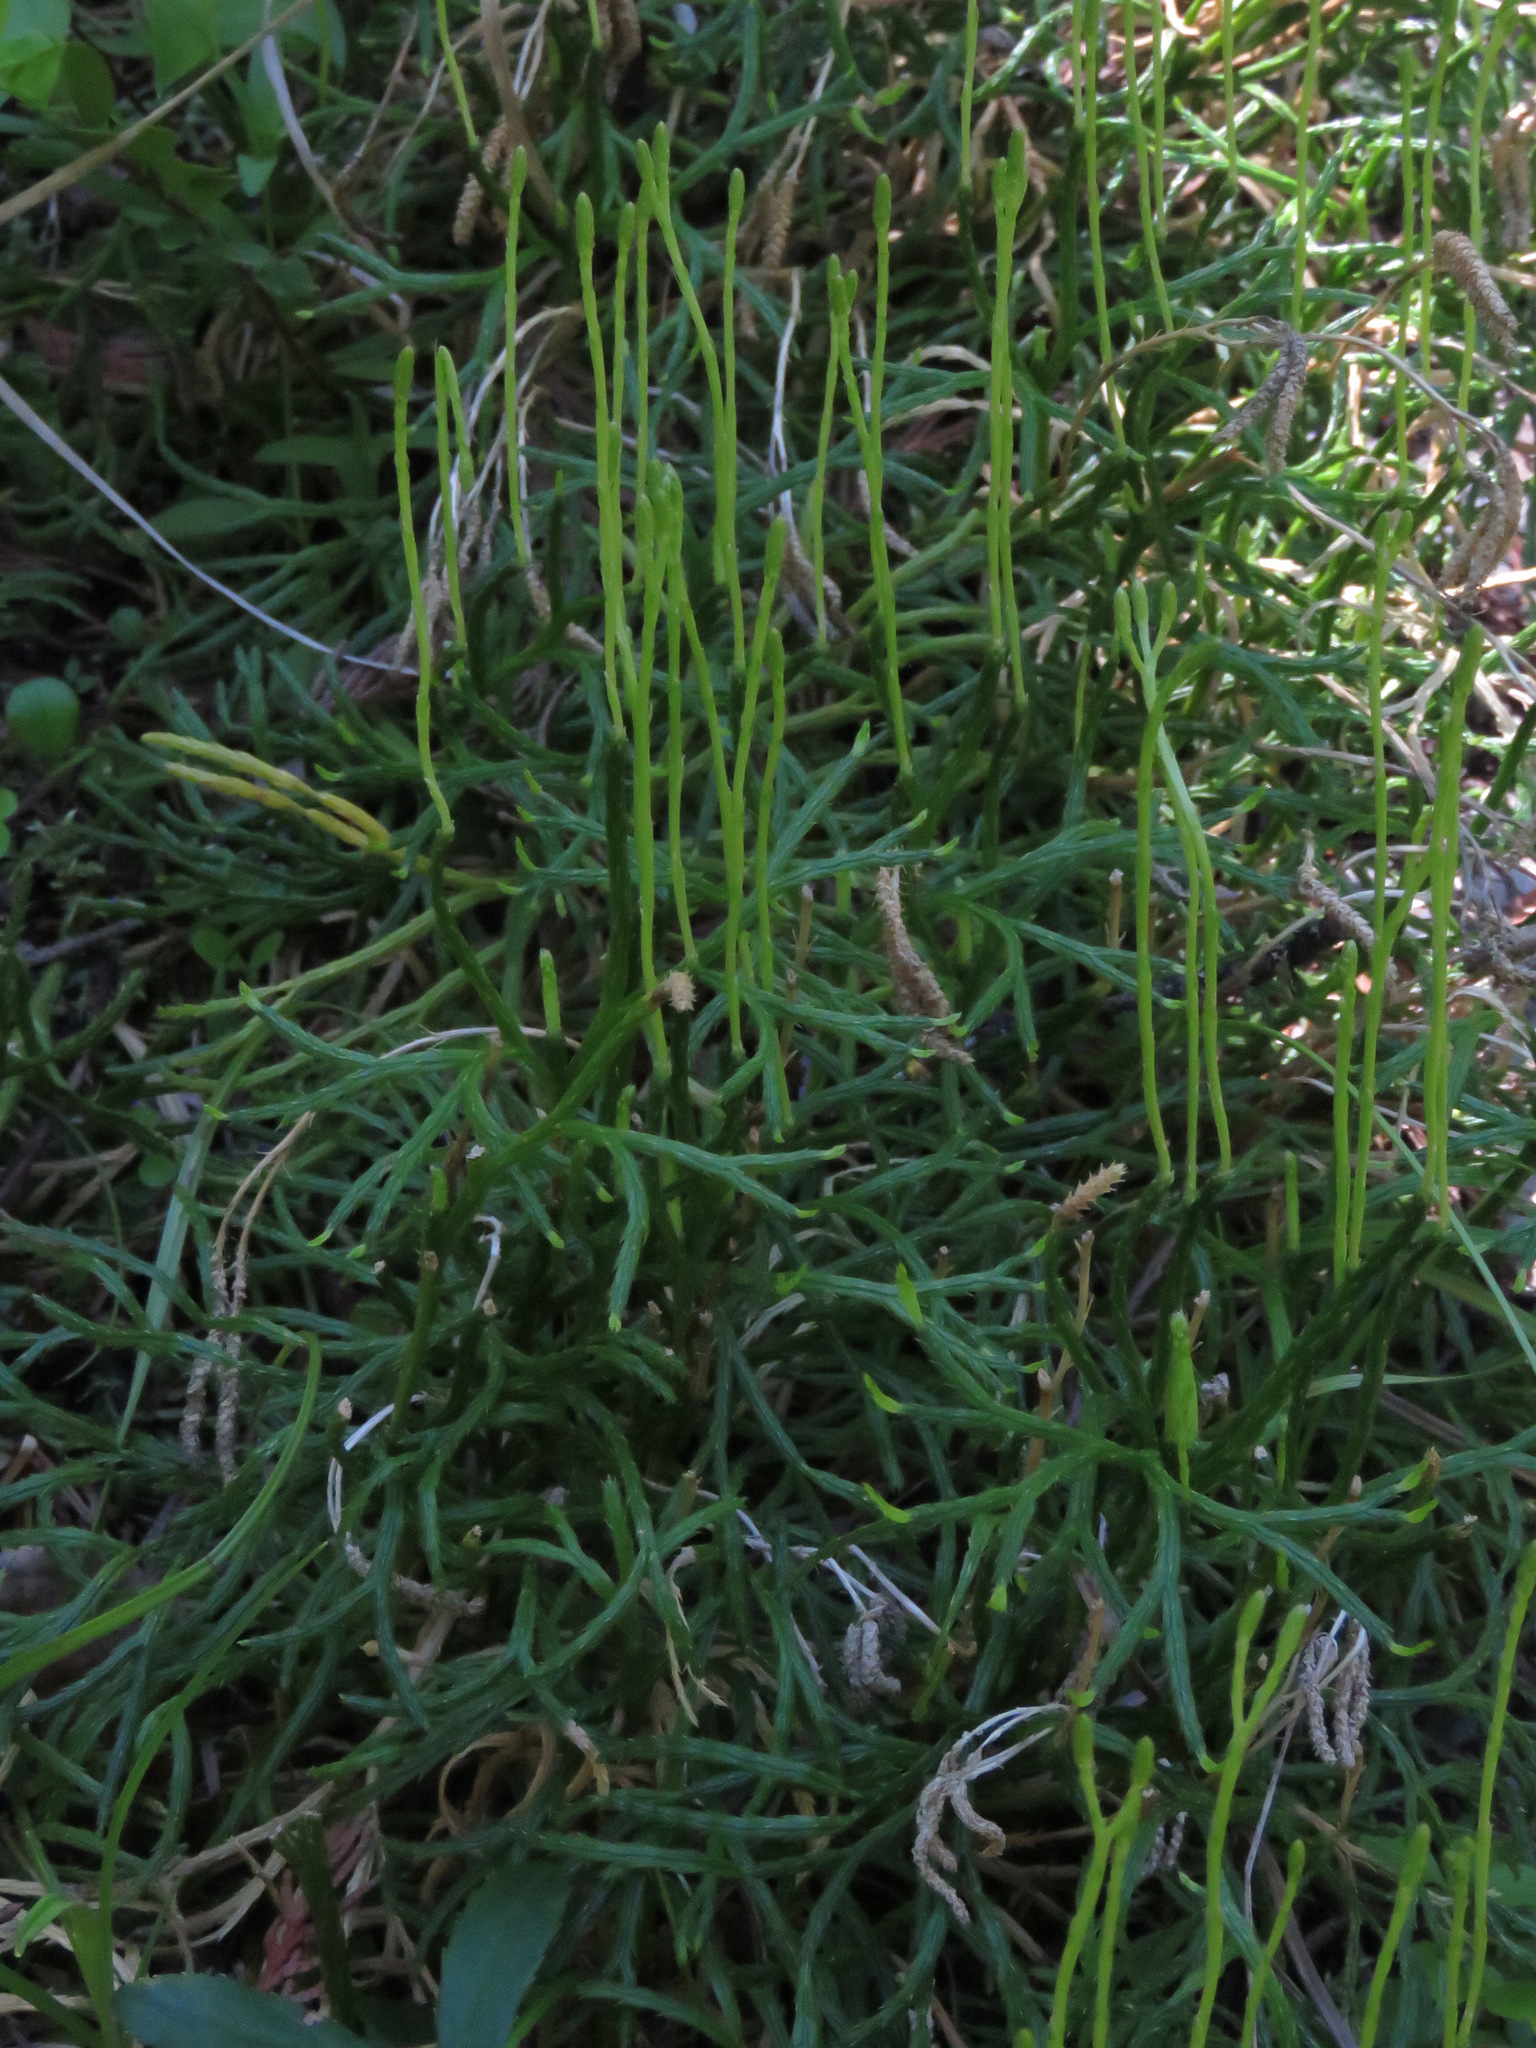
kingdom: Plantae
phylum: Tracheophyta
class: Lycopodiopsida
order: Lycopodiales
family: Lycopodiaceae
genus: Diphasiastrum
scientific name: Diphasiastrum complanatum
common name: Northern running-pine
